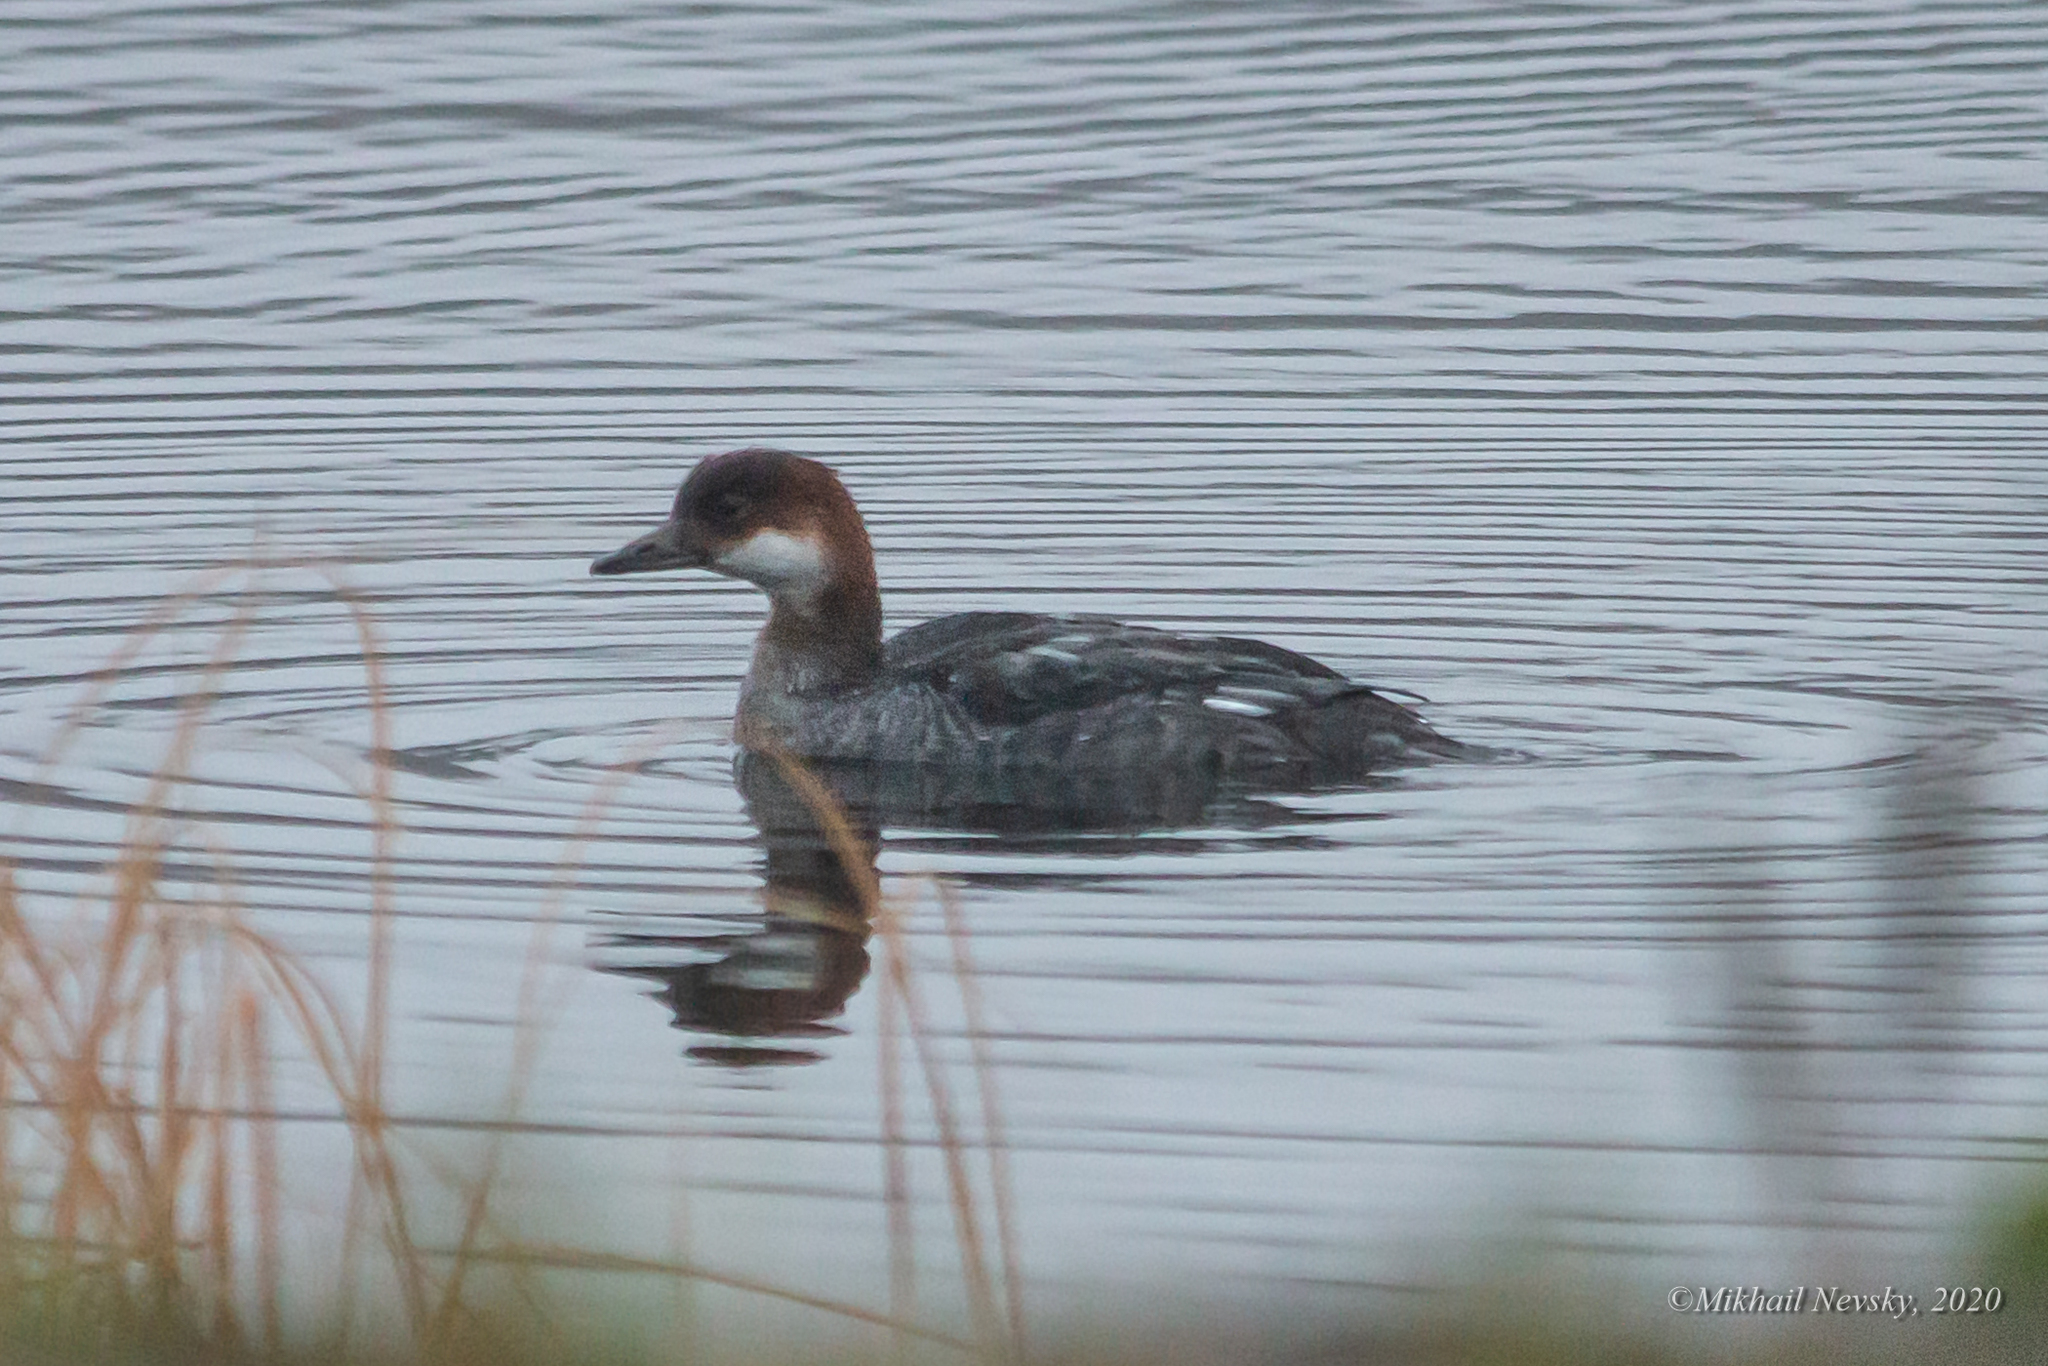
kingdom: Animalia
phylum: Chordata
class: Aves
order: Anseriformes
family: Anatidae
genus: Mergellus
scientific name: Mergellus albellus
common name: Smew
